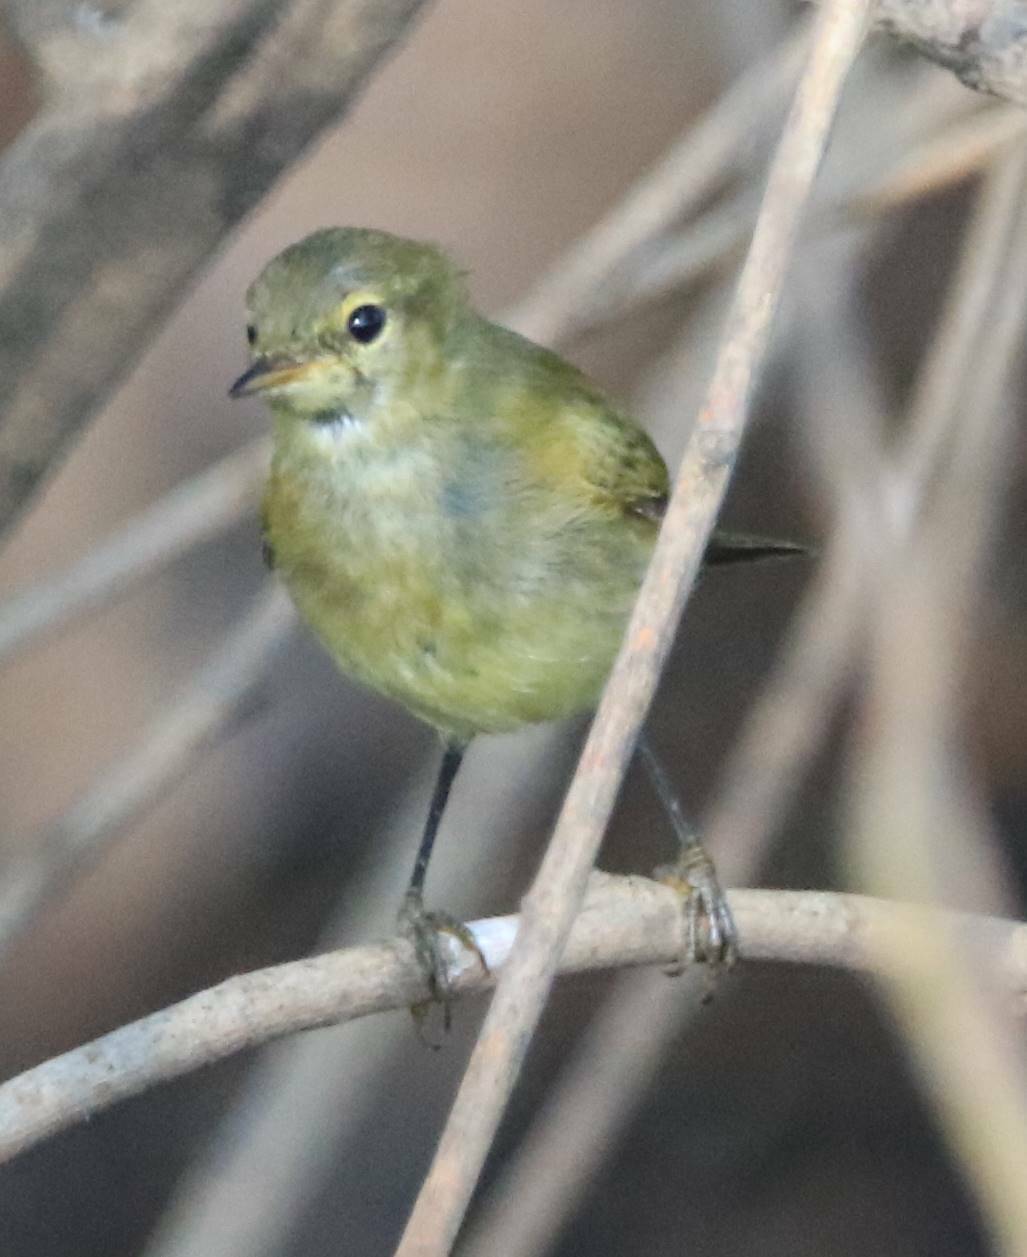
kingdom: Animalia
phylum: Chordata
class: Aves
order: Passeriformes
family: Phylloscopidae
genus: Phylloscopus
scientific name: Phylloscopus ibericus
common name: Iberian chiffchaff
